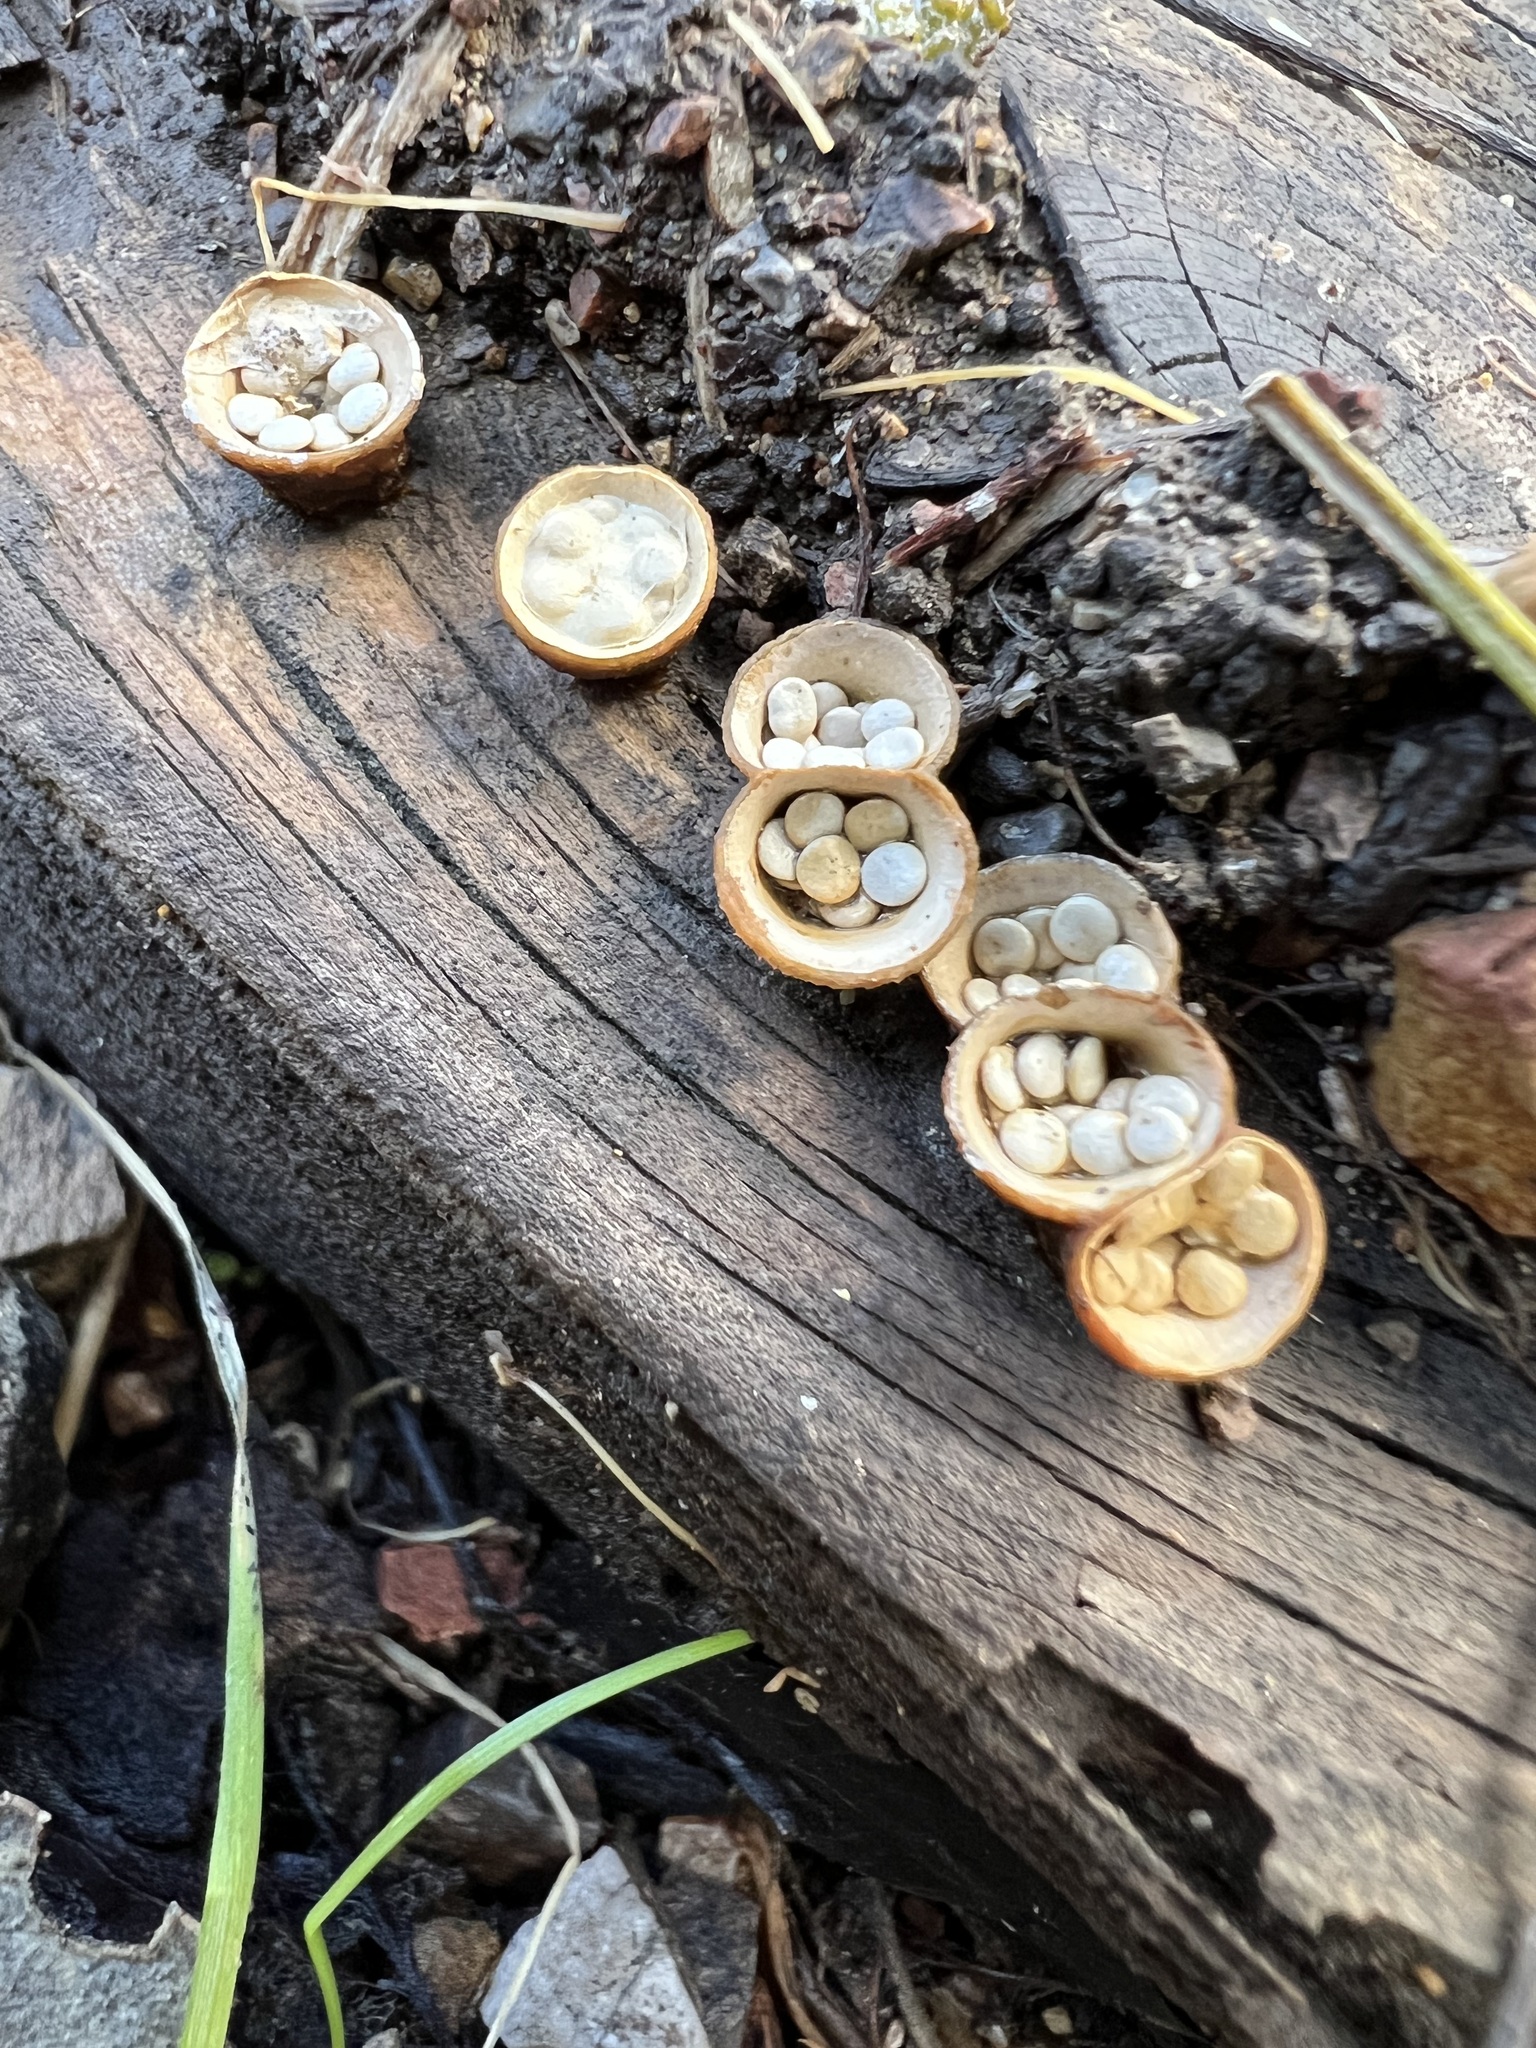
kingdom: Fungi
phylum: Basidiomycota
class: Agaricomycetes
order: Agaricales
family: Nidulariaceae
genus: Crucibulum
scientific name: Crucibulum laeve
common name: Common bird's nest
